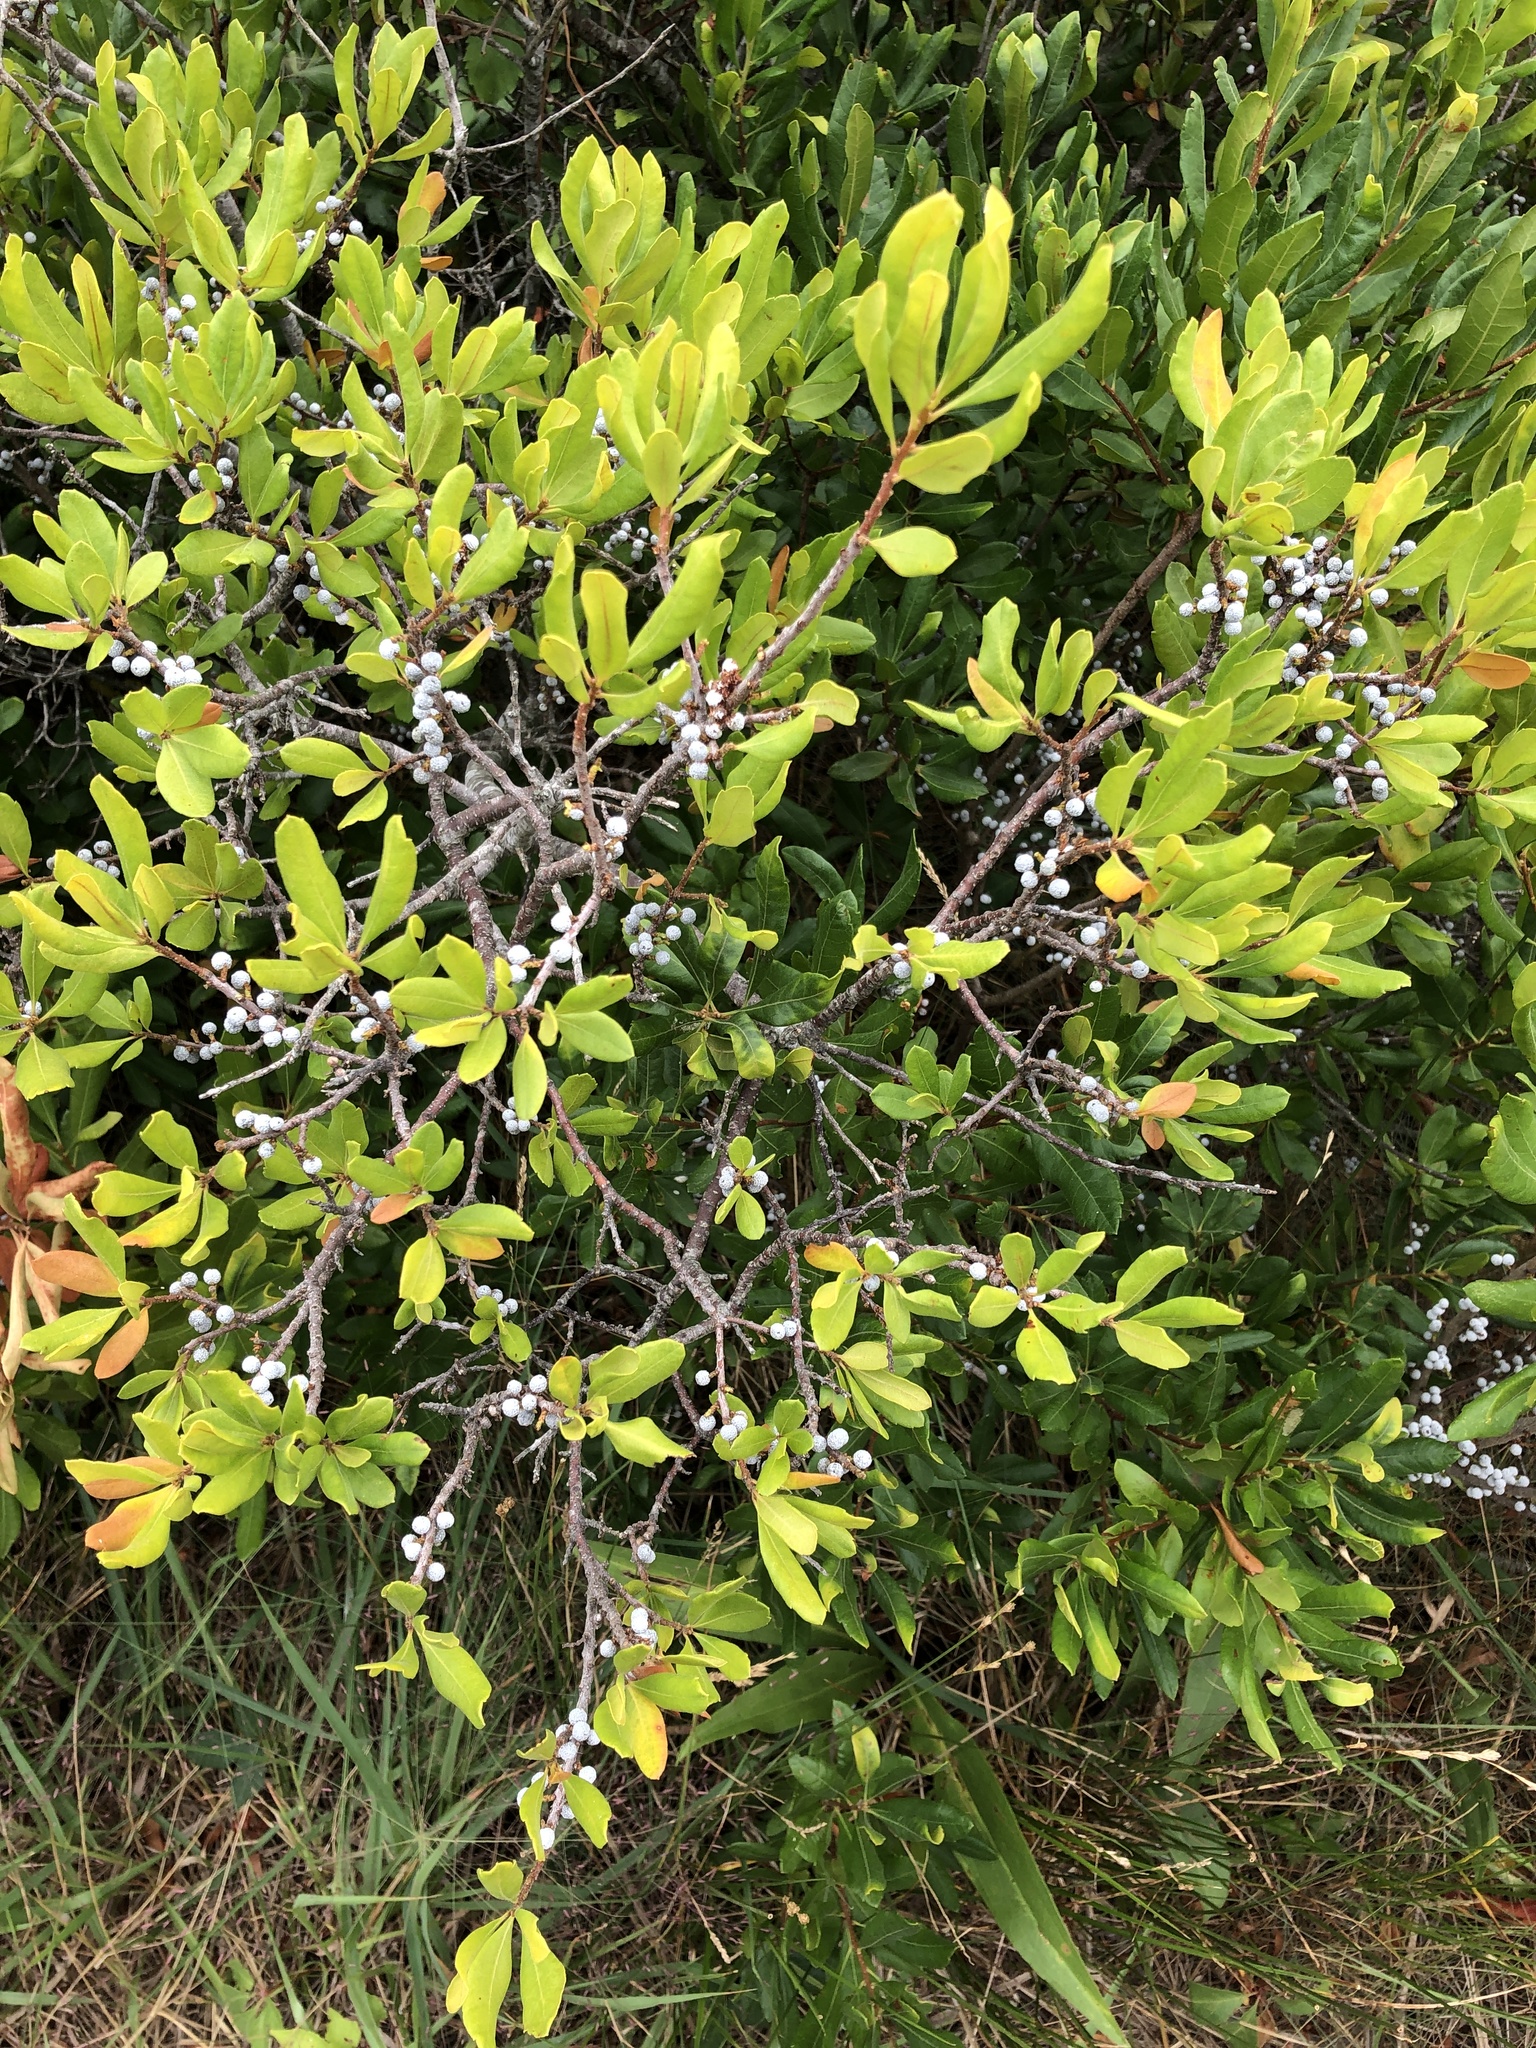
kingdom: Plantae
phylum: Tracheophyta
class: Magnoliopsida
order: Fagales
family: Myricaceae
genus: Morella
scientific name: Morella pensylvanica
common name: Northern bayberry
